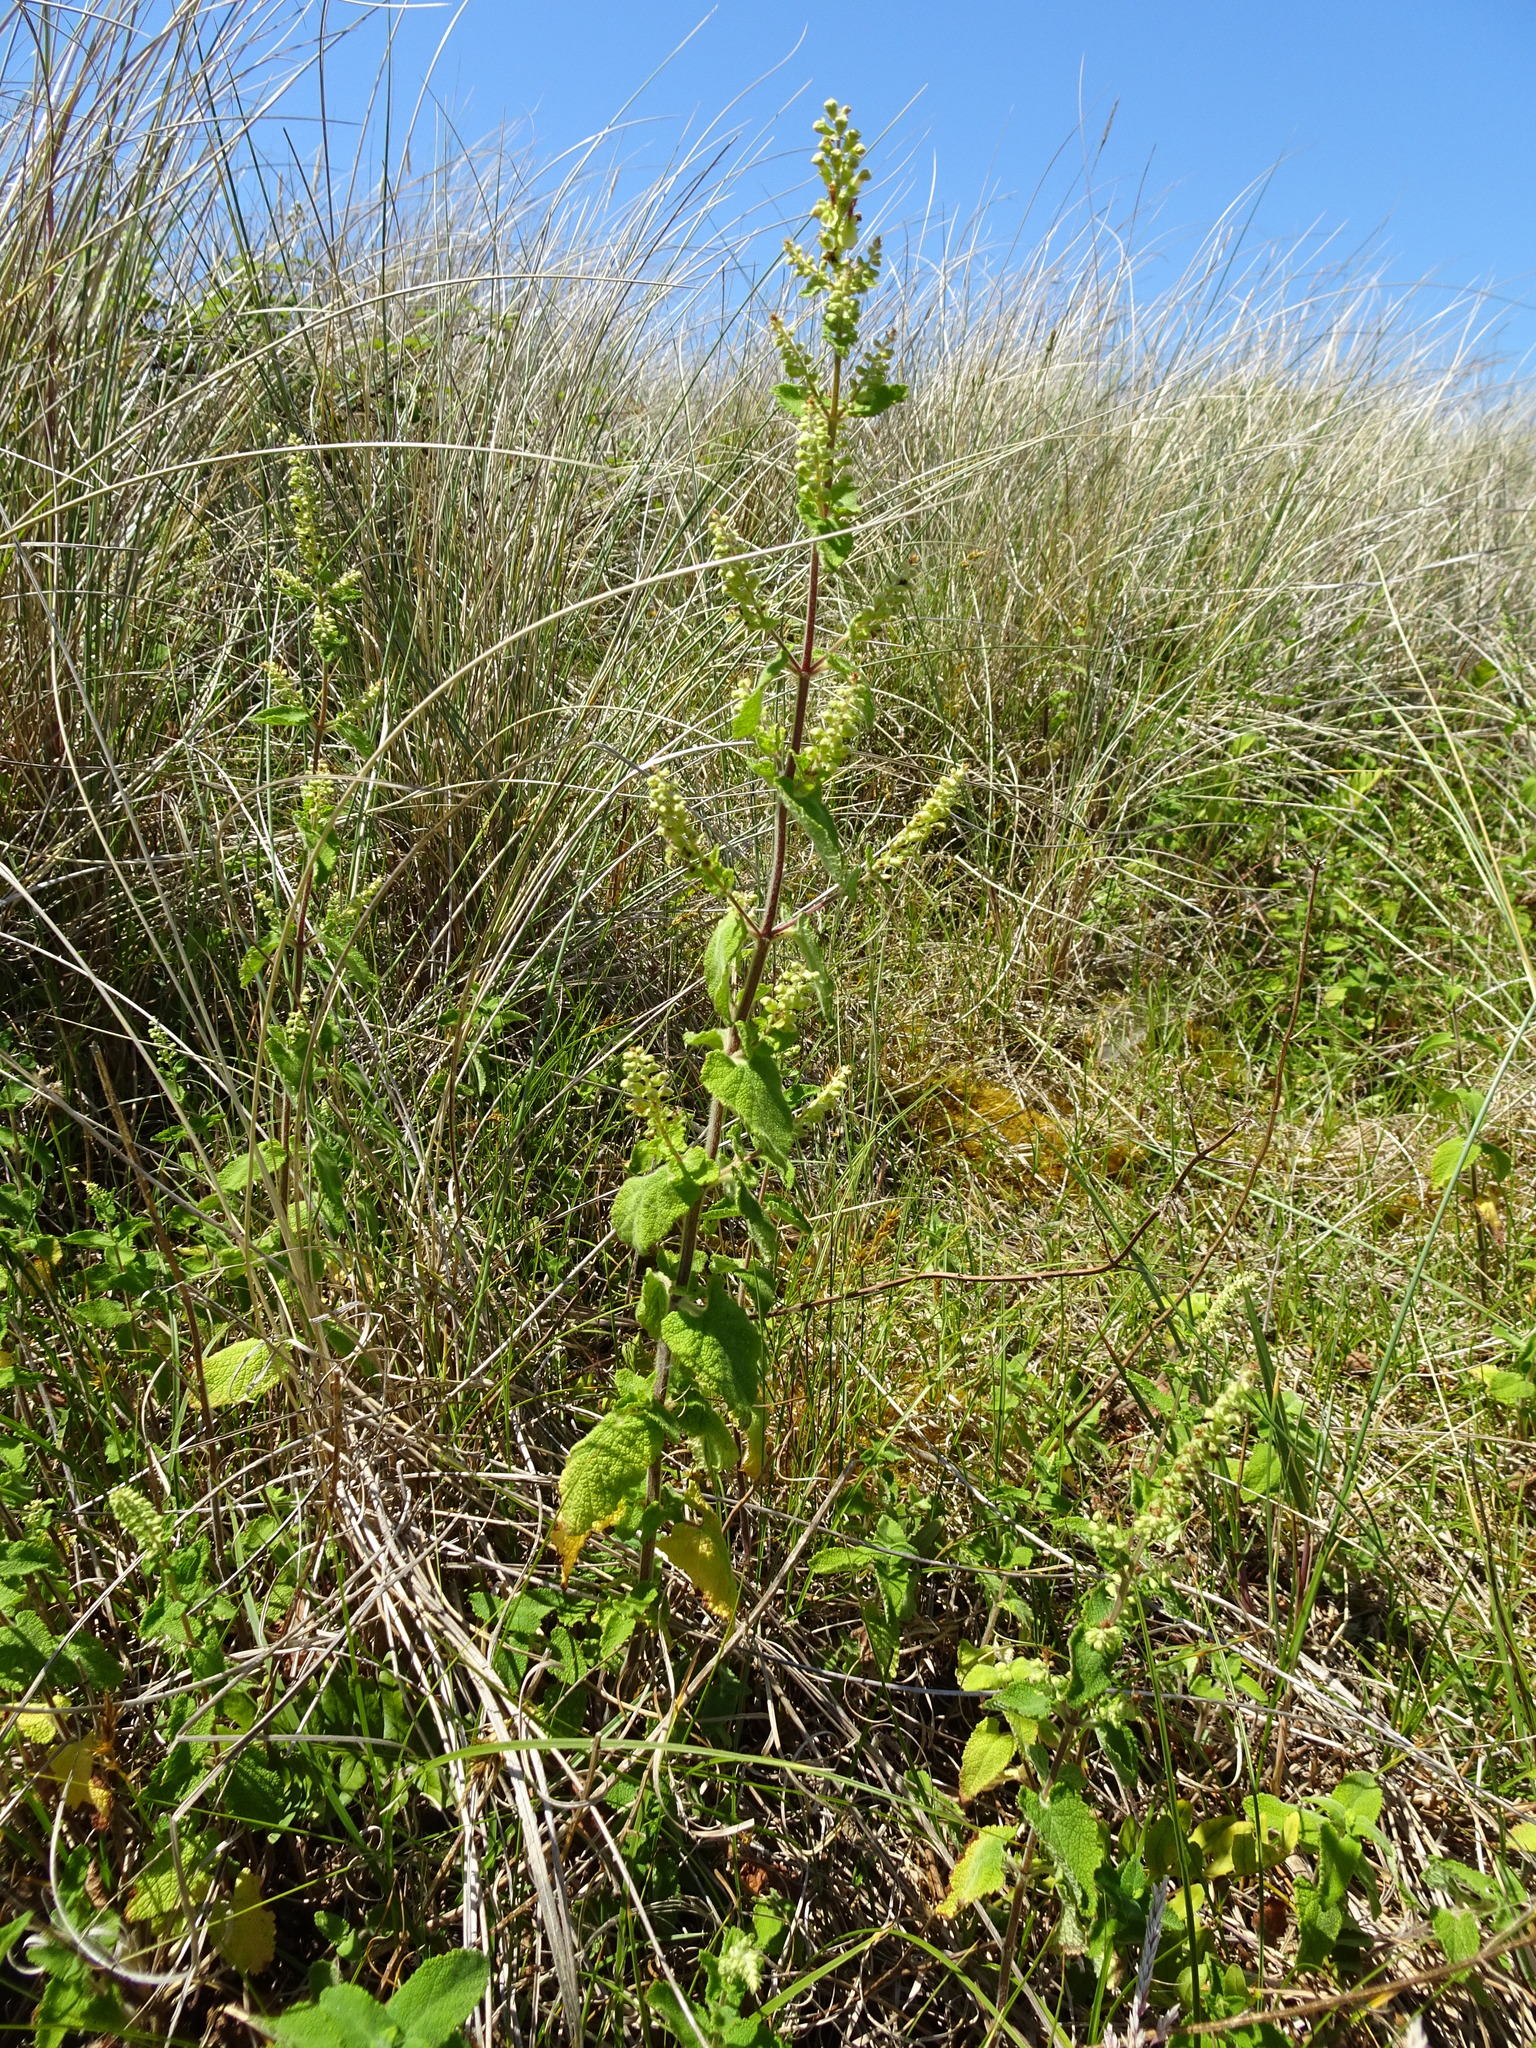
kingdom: Plantae
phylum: Tracheophyta
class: Magnoliopsida
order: Lamiales
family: Lamiaceae
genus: Teucrium
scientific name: Teucrium scorodonia
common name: Woodland germander
